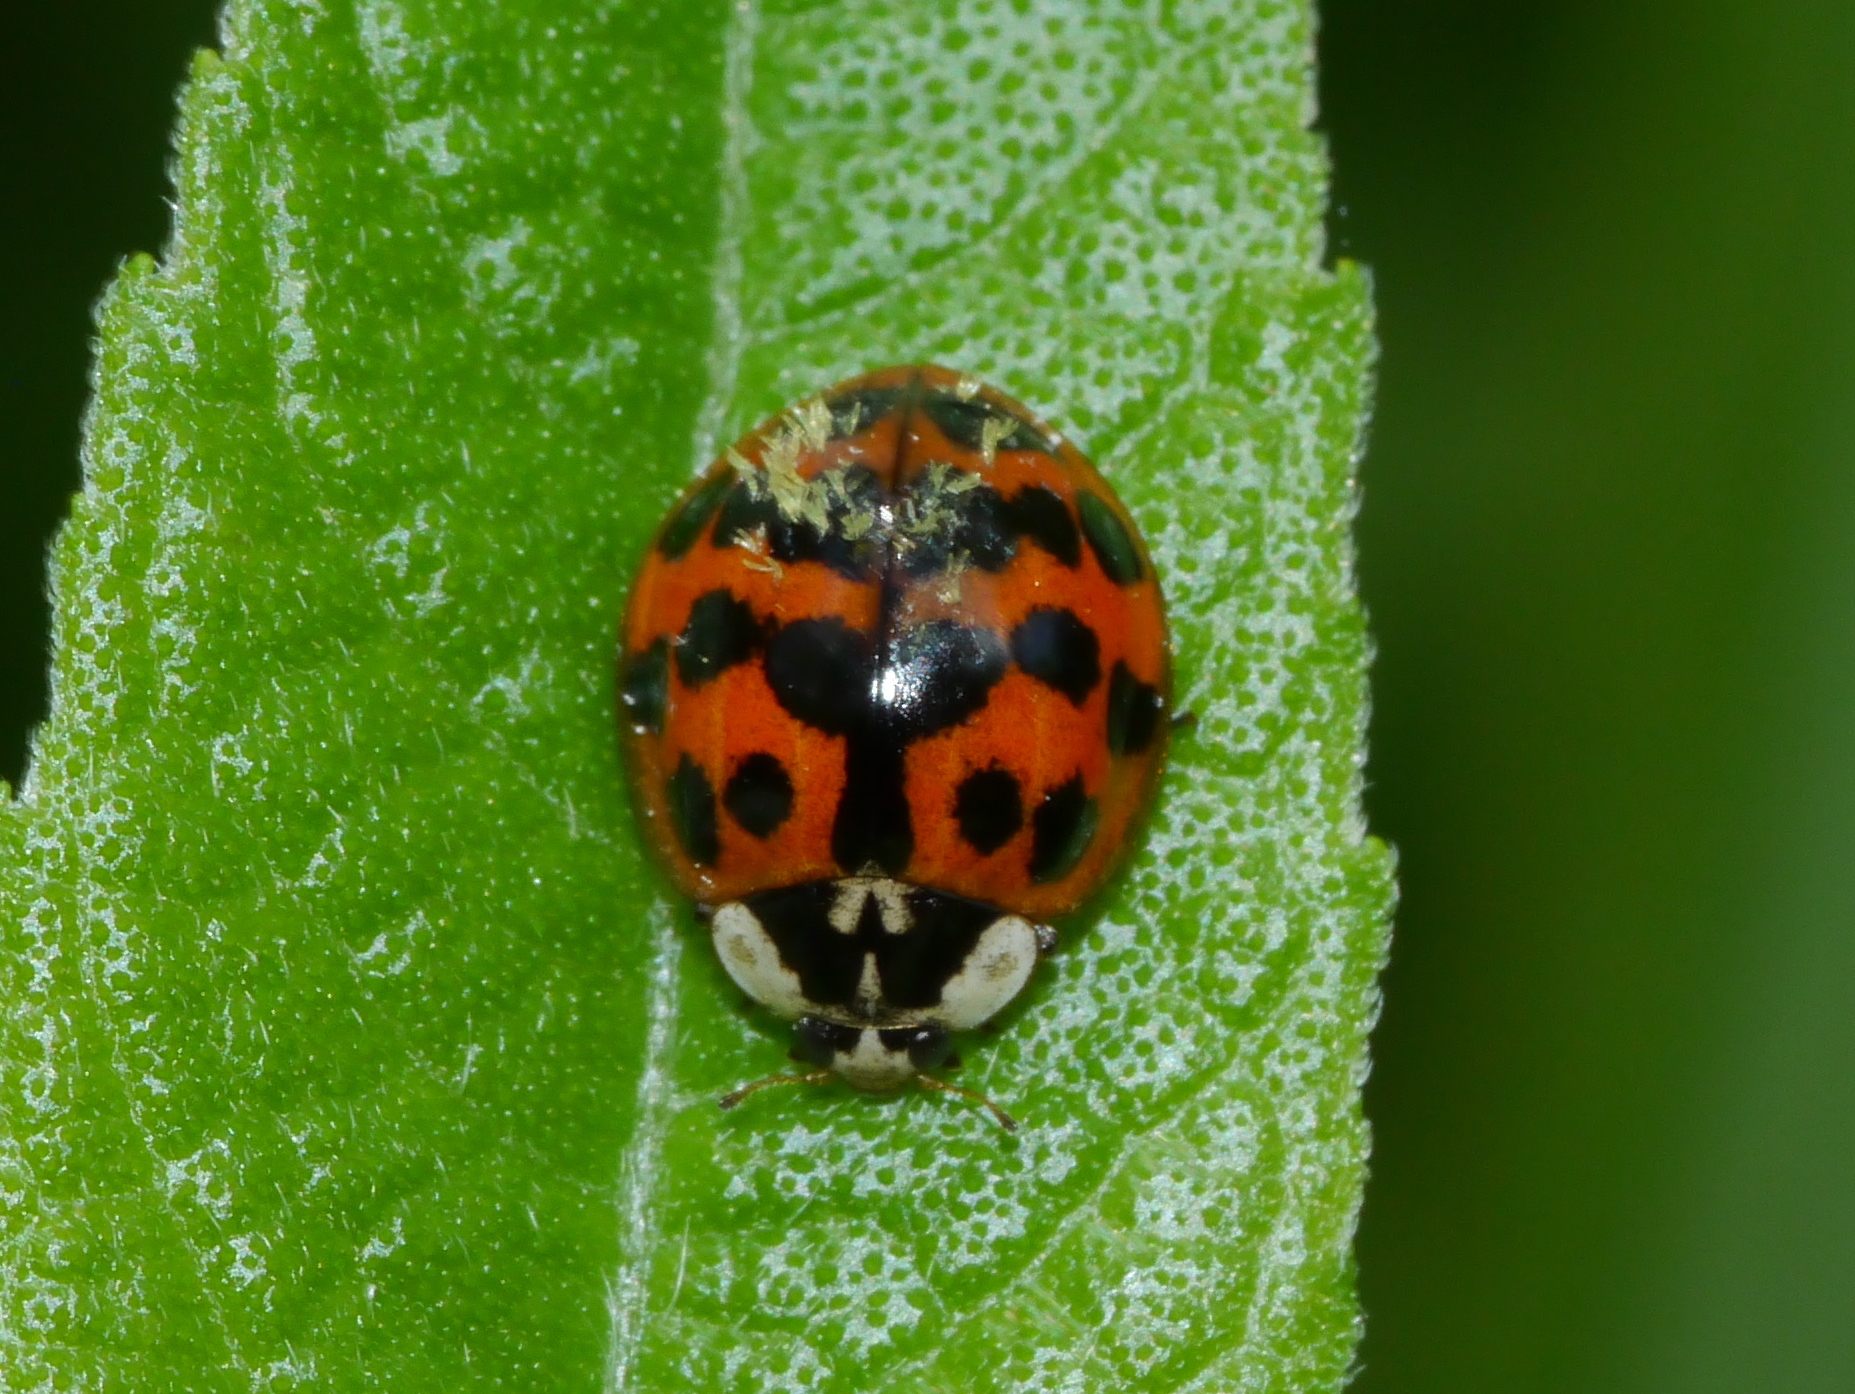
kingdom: Animalia
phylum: Arthropoda
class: Insecta
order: Coleoptera
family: Coccinellidae
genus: Harmonia
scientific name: Harmonia axyridis
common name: Harlequin ladybird
